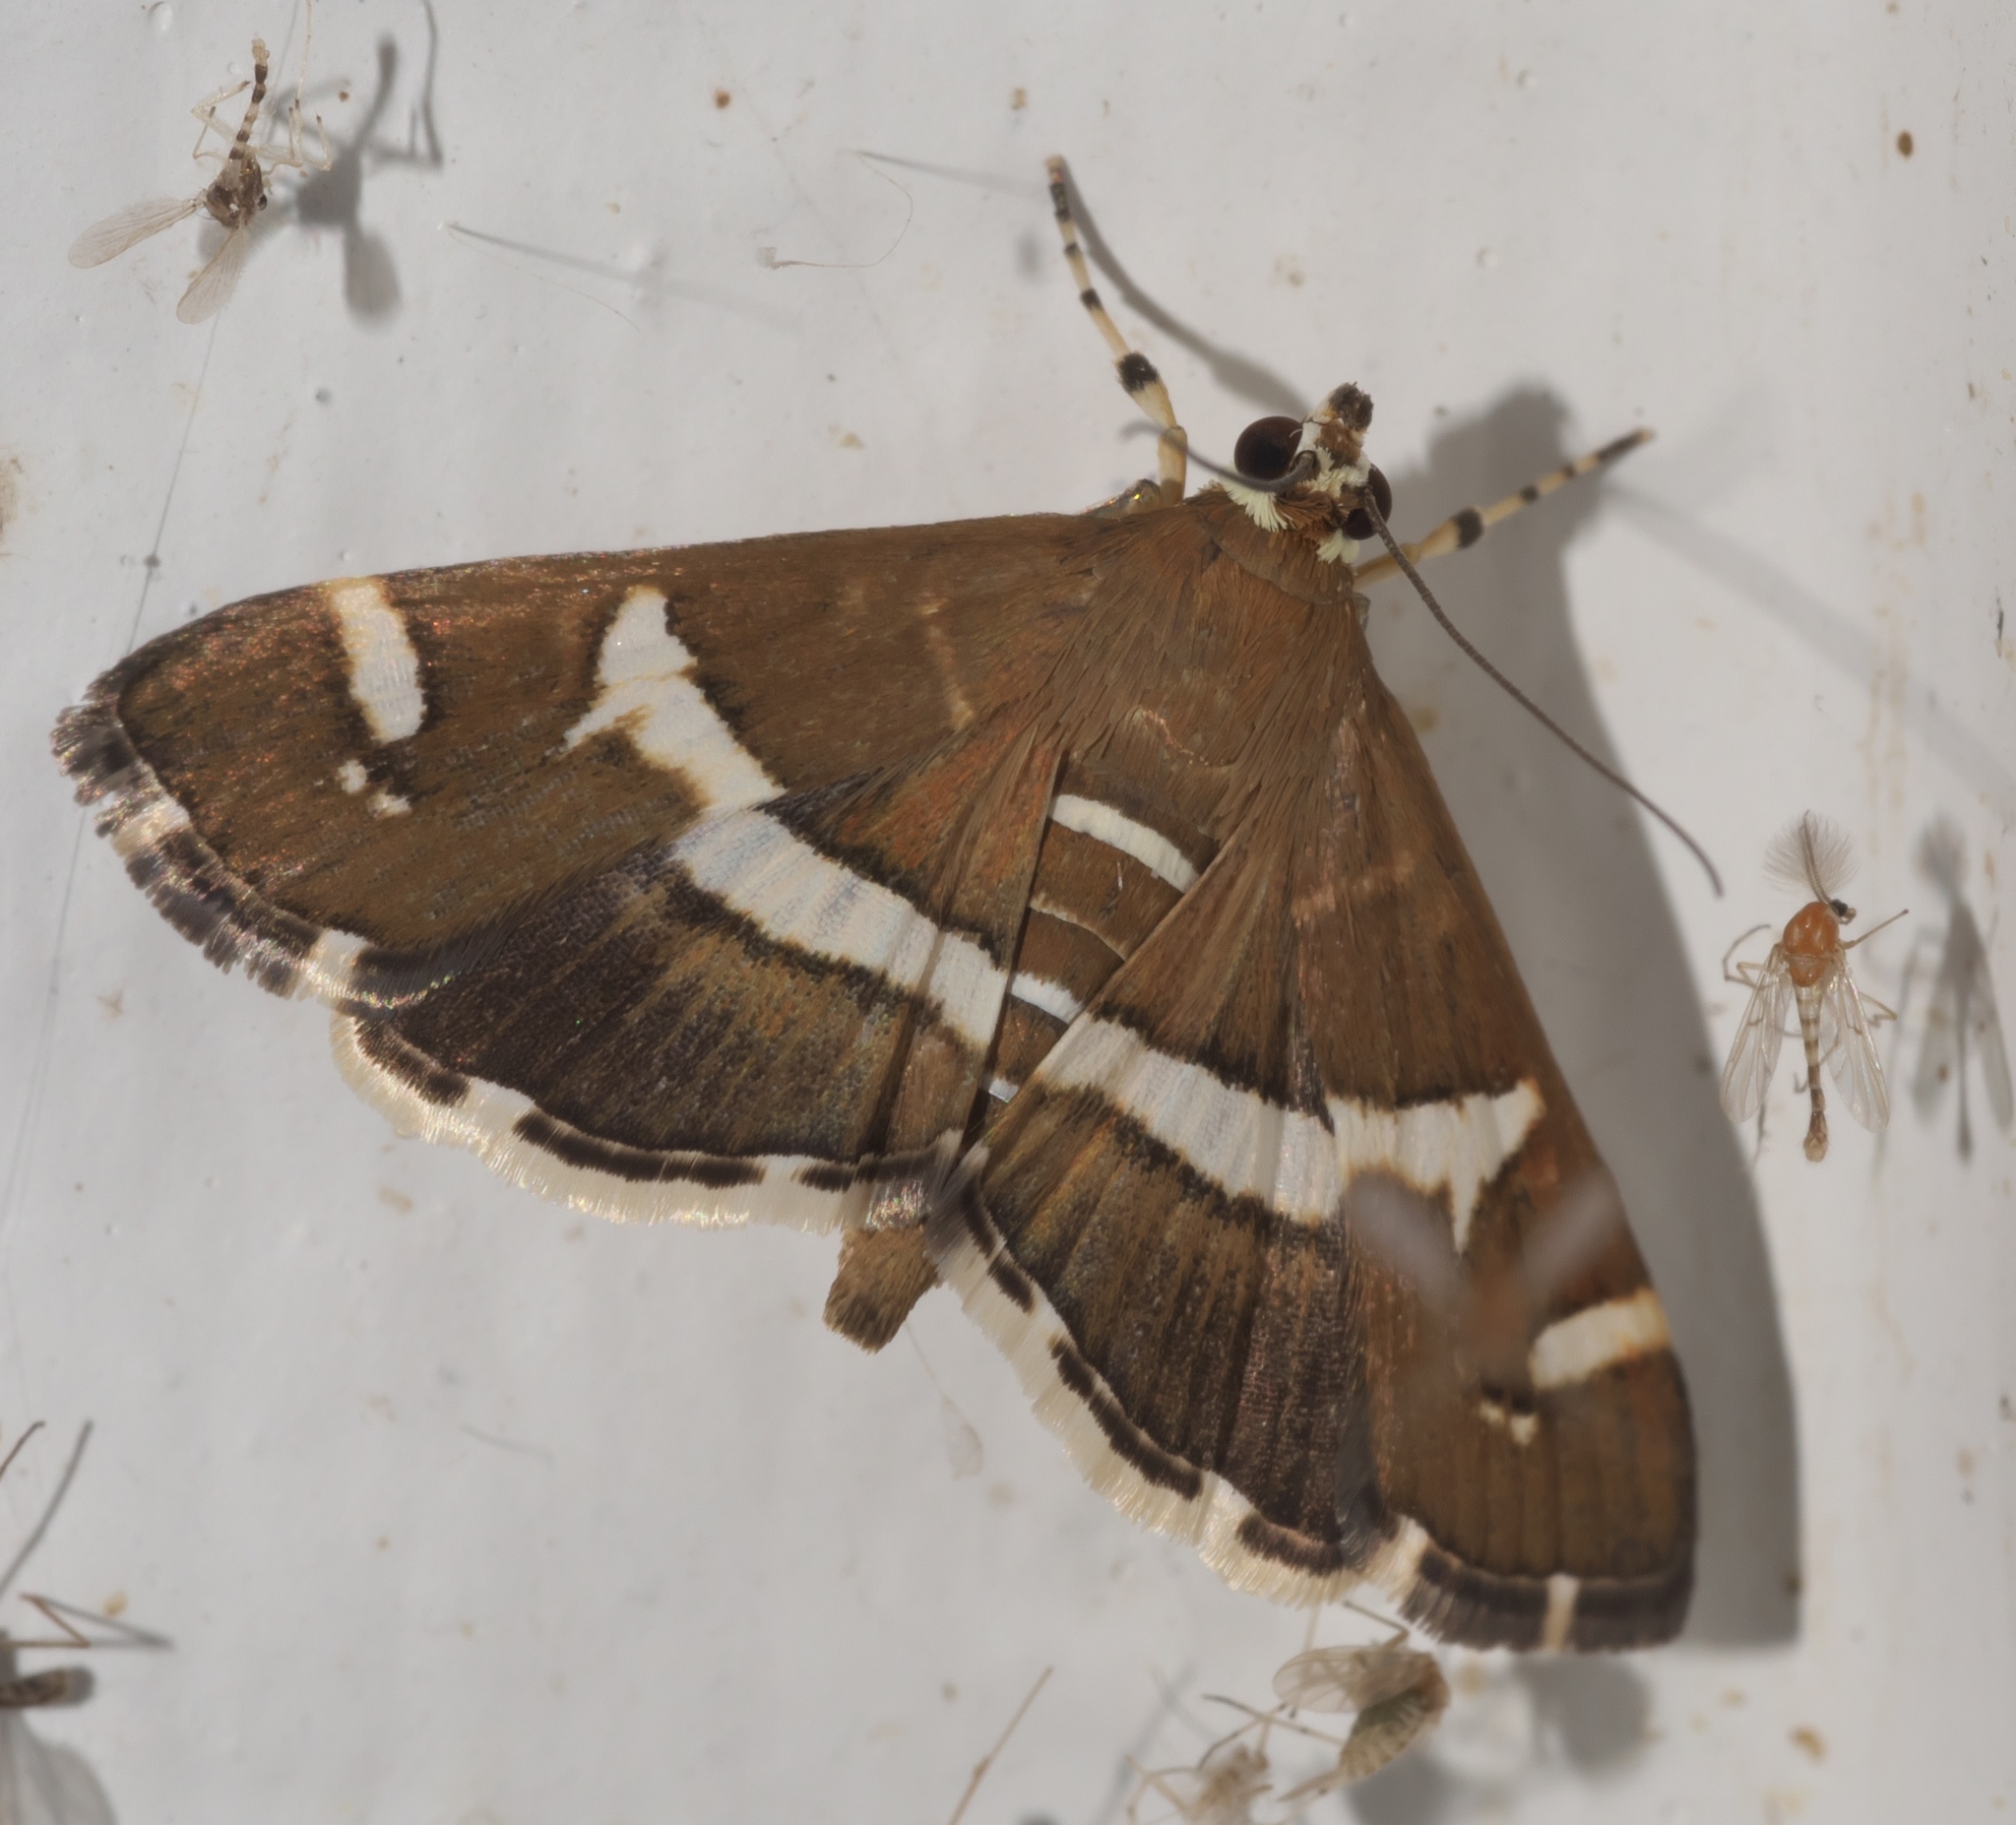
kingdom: Animalia
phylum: Arthropoda
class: Insecta
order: Lepidoptera
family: Crambidae
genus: Spoladea
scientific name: Spoladea recurvalis
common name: Beet webworm moth
